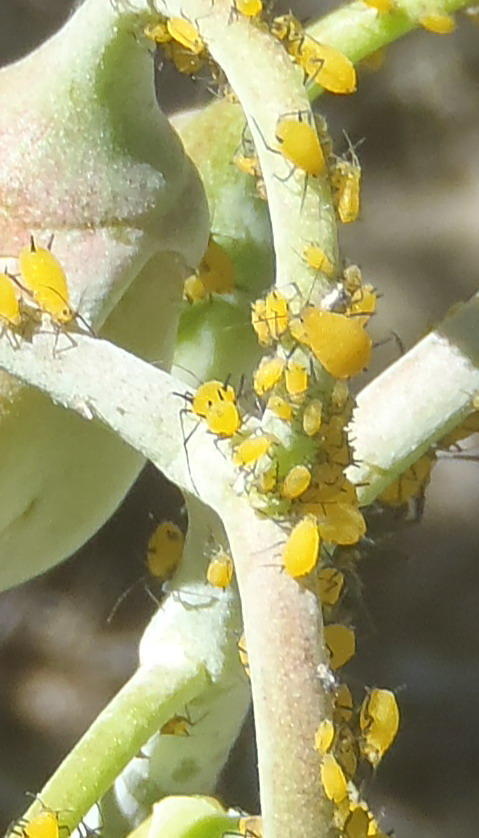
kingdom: Animalia
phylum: Arthropoda
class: Insecta
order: Hemiptera
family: Aphididae
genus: Aphis
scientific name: Aphis nerii
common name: Oleander aphid
